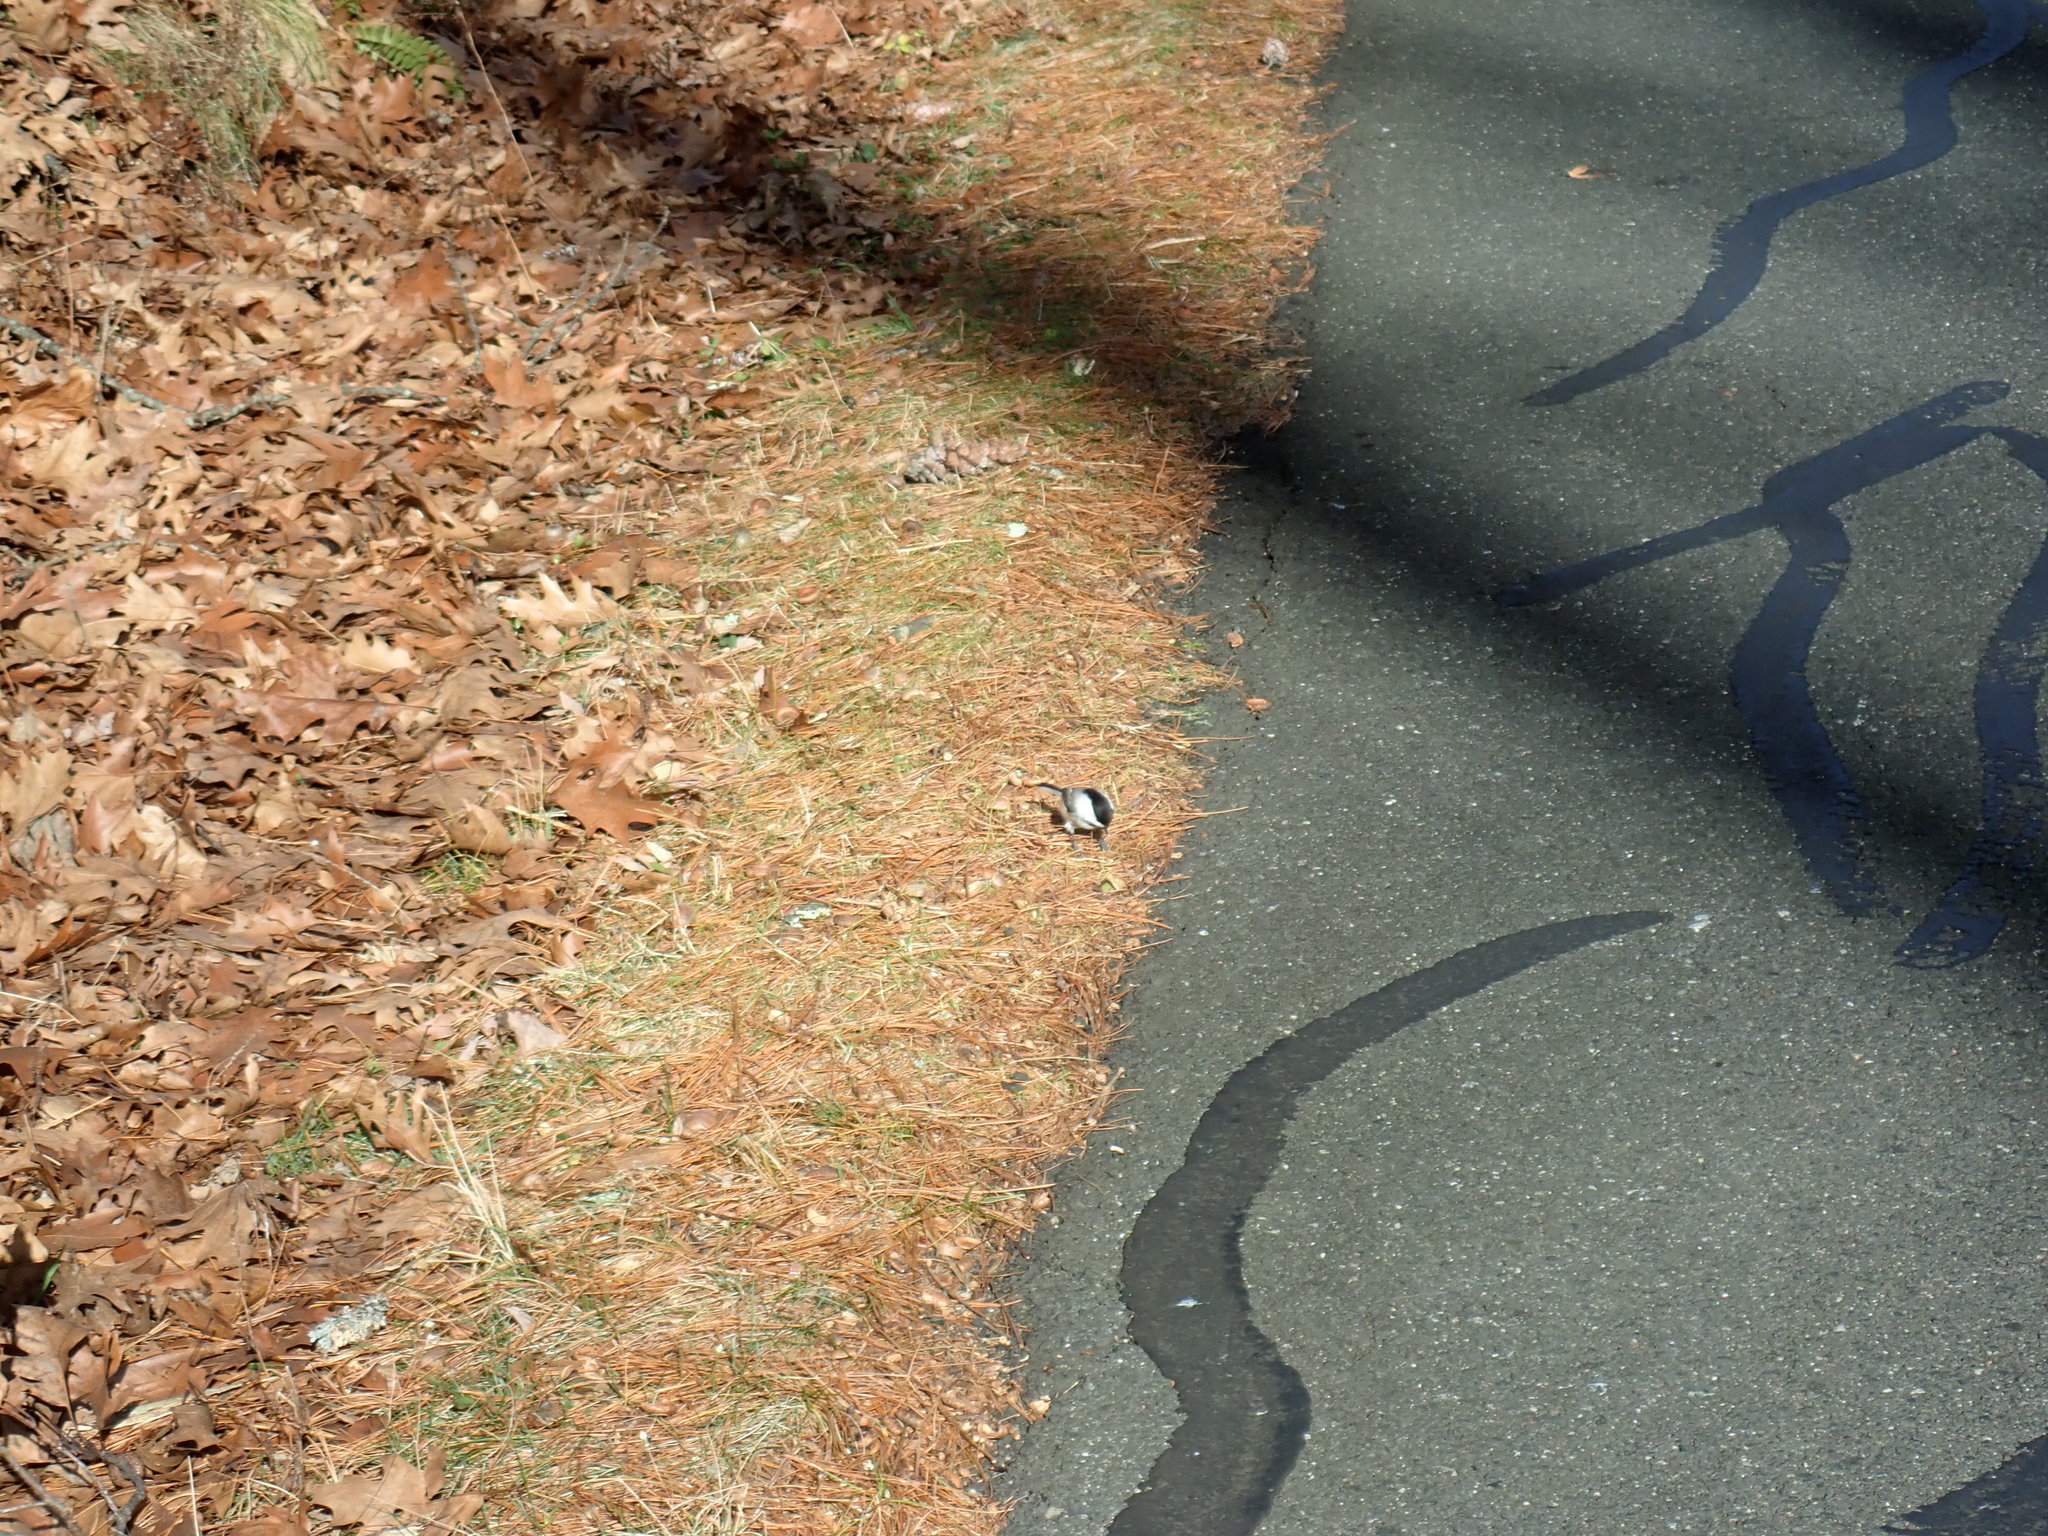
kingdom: Animalia
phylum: Chordata
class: Aves
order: Passeriformes
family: Paridae
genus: Poecile
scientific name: Poecile atricapillus
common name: Black-capped chickadee
